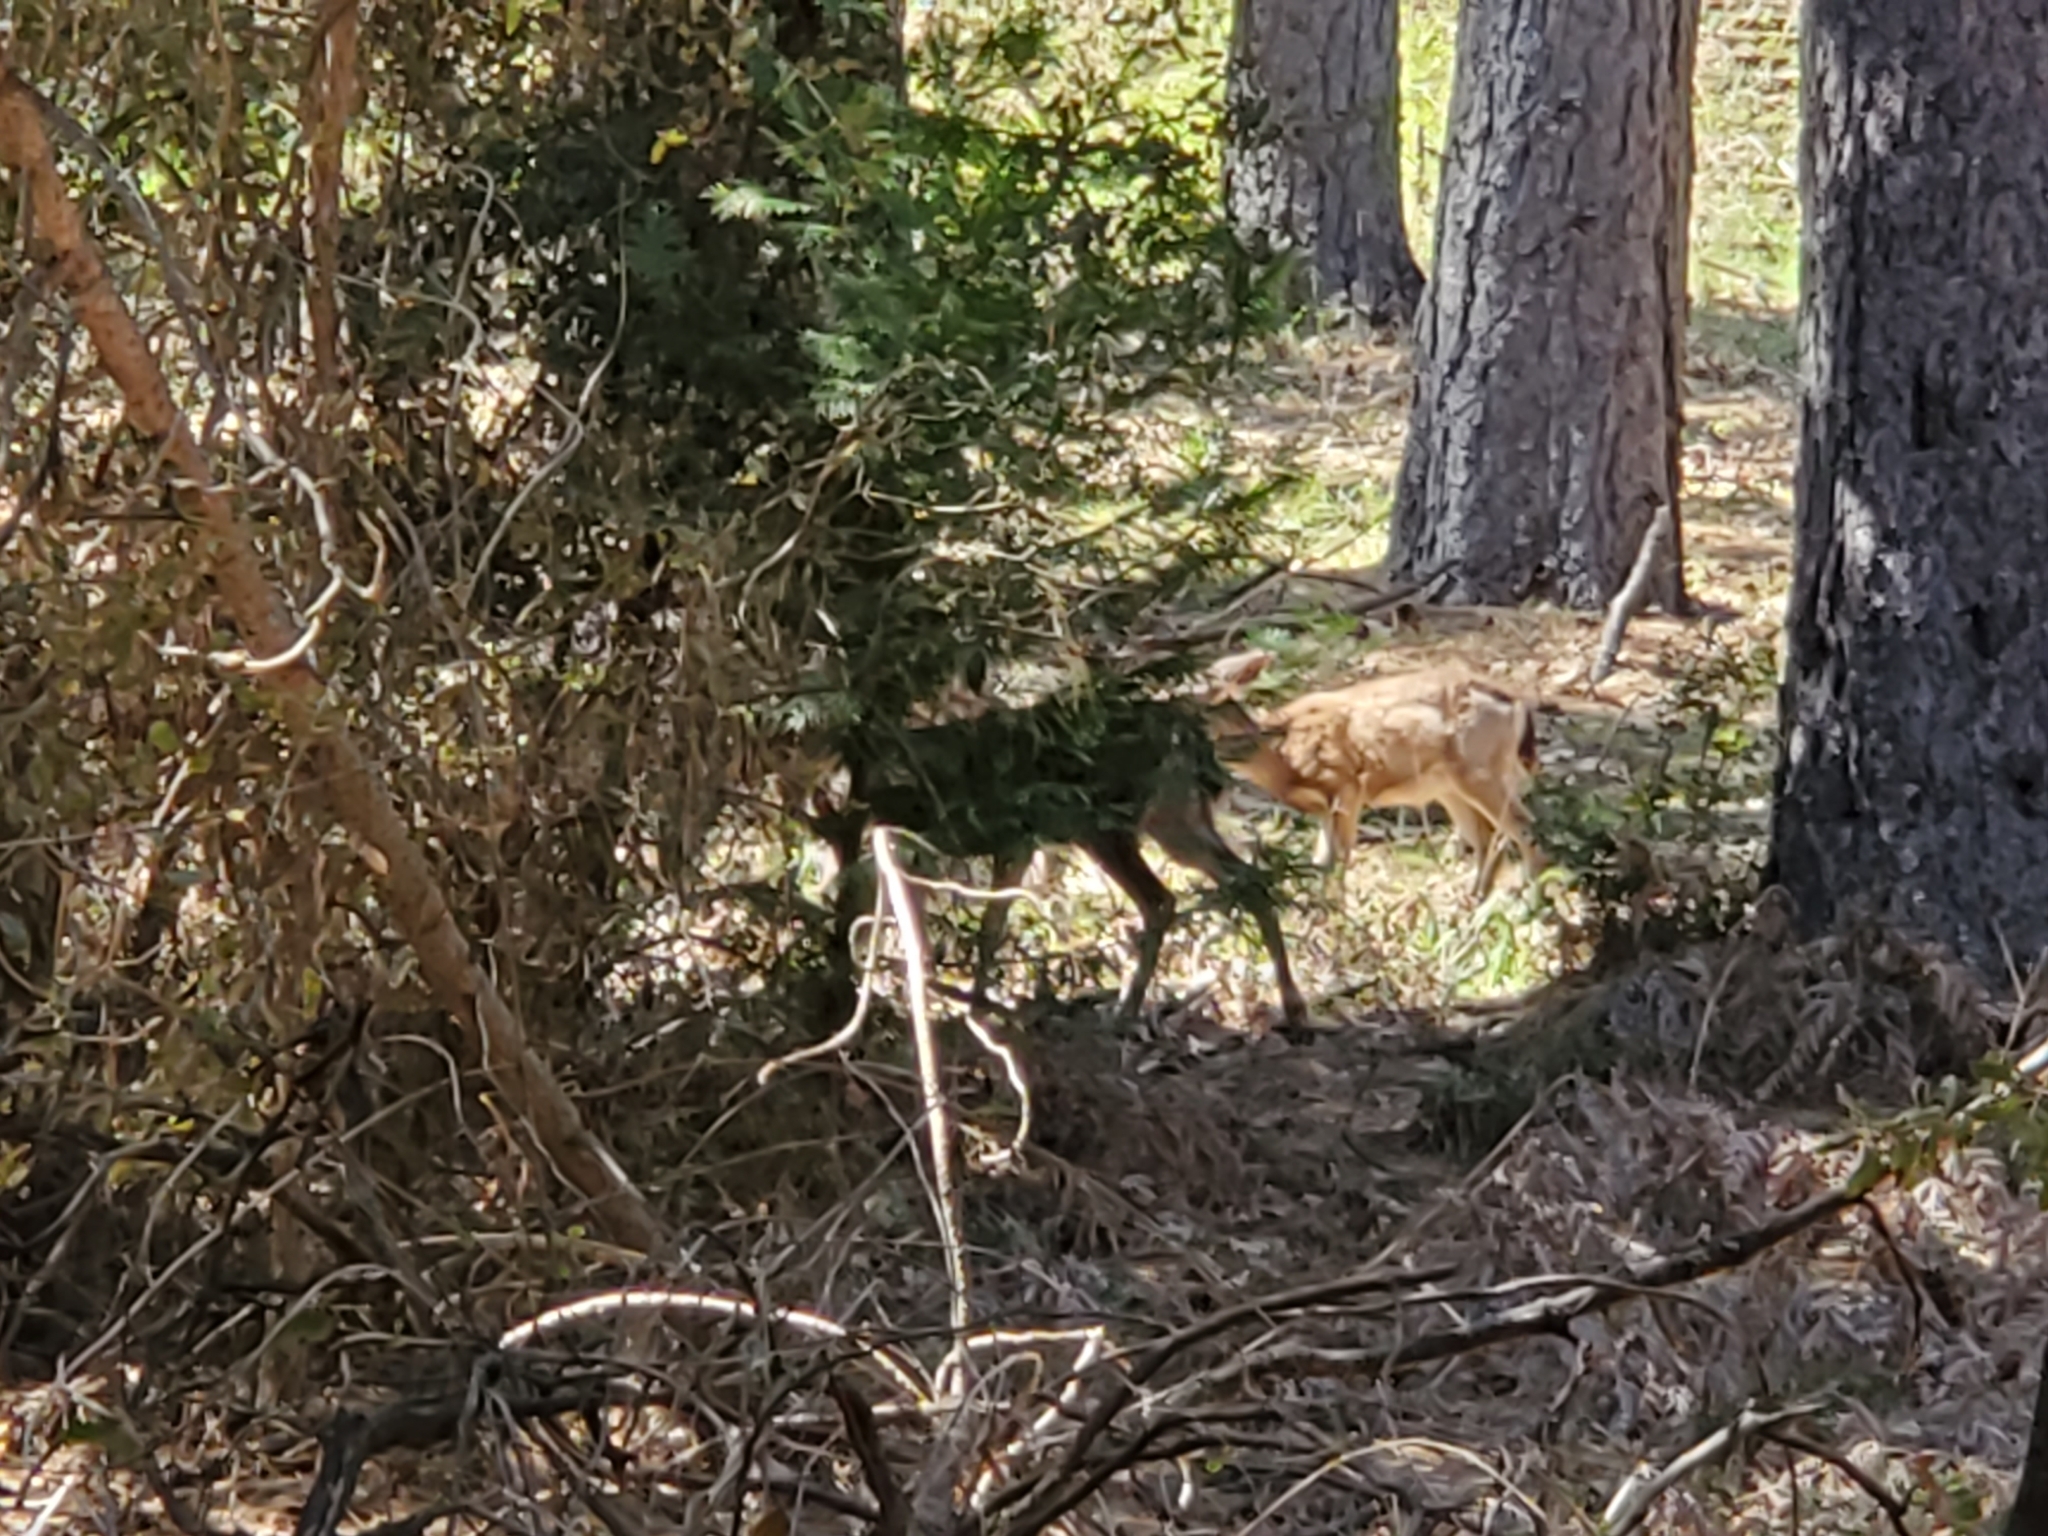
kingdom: Animalia
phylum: Chordata
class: Mammalia
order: Artiodactyla
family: Cervidae
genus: Odocoileus
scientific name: Odocoileus hemionus
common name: Mule deer
